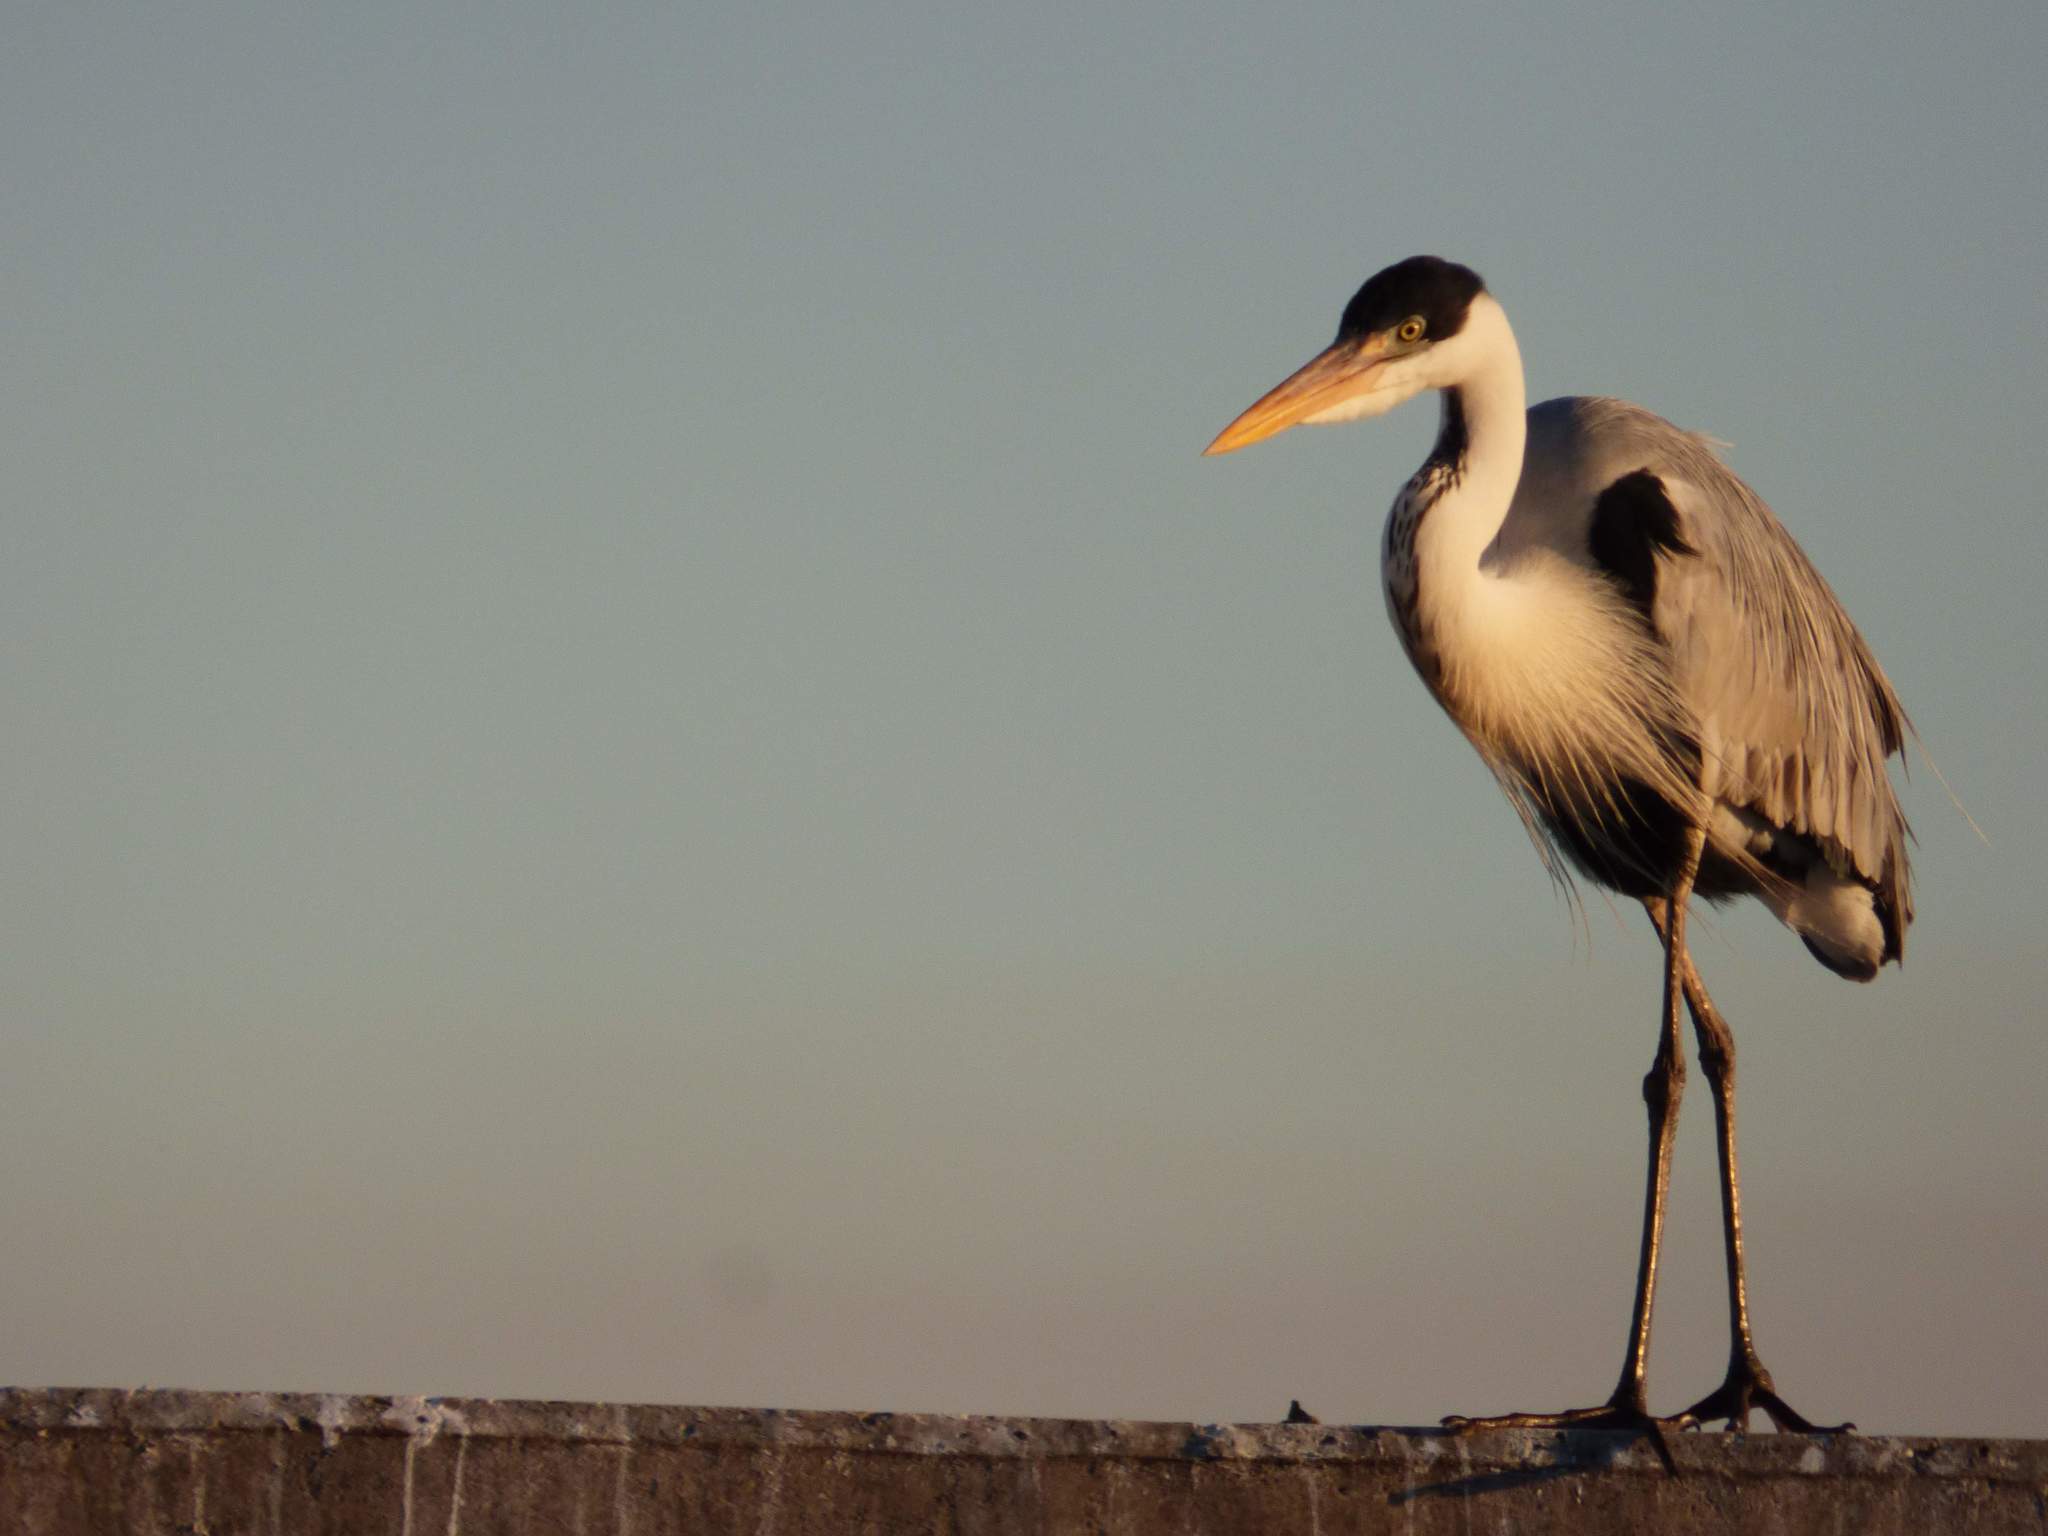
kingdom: Animalia
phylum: Chordata
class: Aves
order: Pelecaniformes
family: Ardeidae
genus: Ardea
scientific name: Ardea cocoi
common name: Cocoi heron
